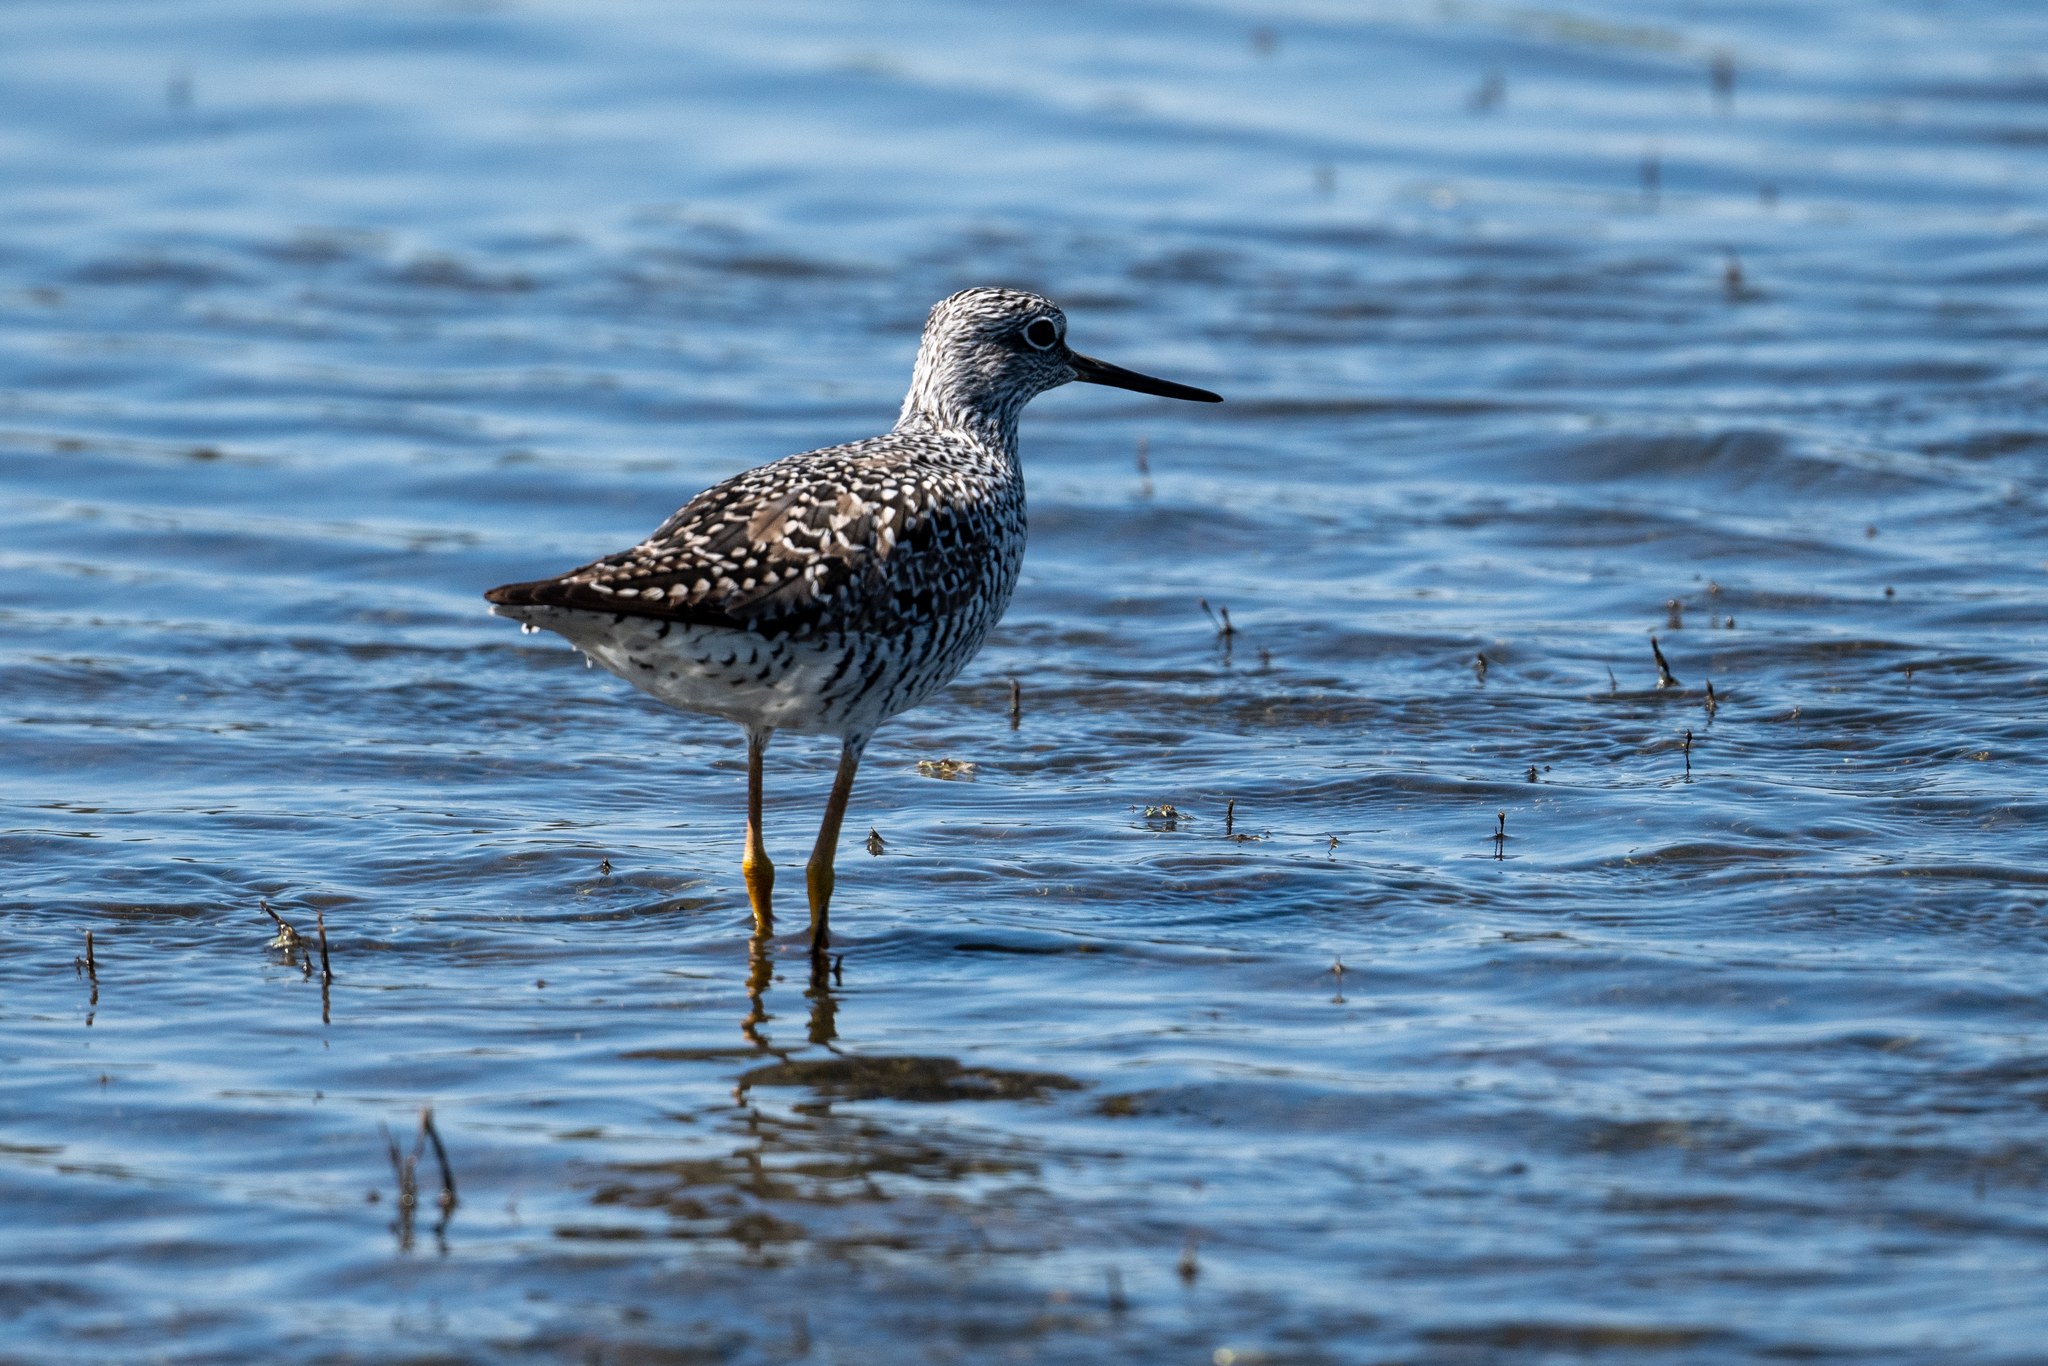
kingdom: Animalia
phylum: Chordata
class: Aves
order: Charadriiformes
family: Scolopacidae
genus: Tringa
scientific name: Tringa melanoleuca
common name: Greater yellowlegs
